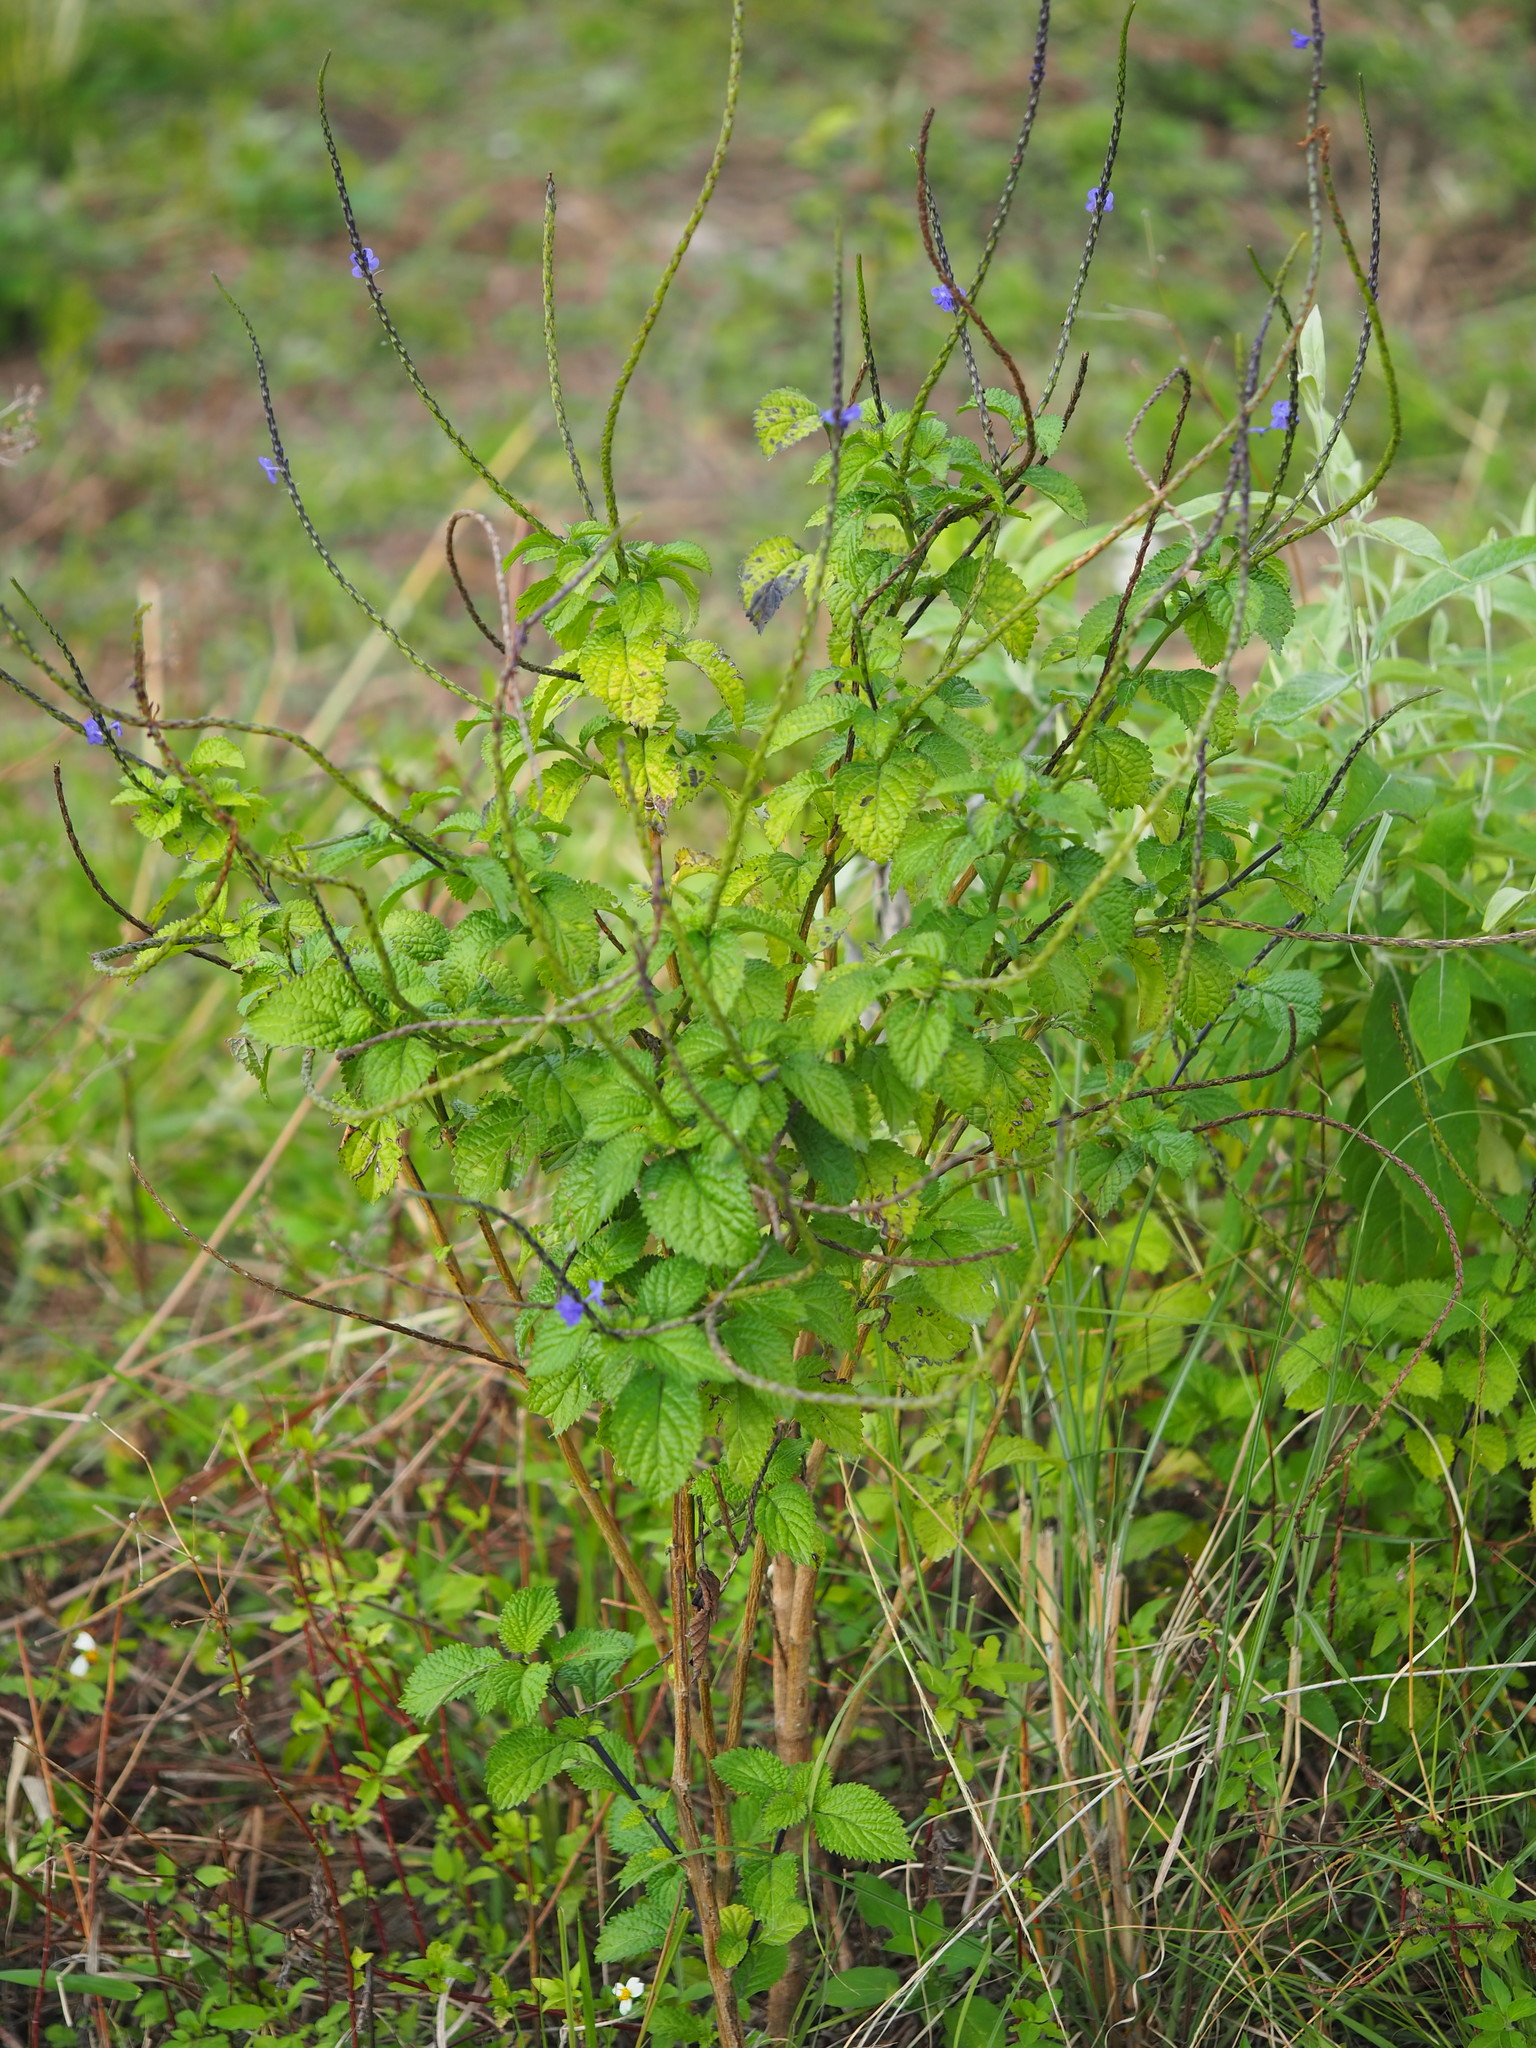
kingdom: Plantae
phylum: Tracheophyta
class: Magnoliopsida
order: Lamiales
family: Verbenaceae
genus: Stachytarpheta
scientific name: Stachytarpheta urticifolia
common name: Nettleleaf velvetberry
